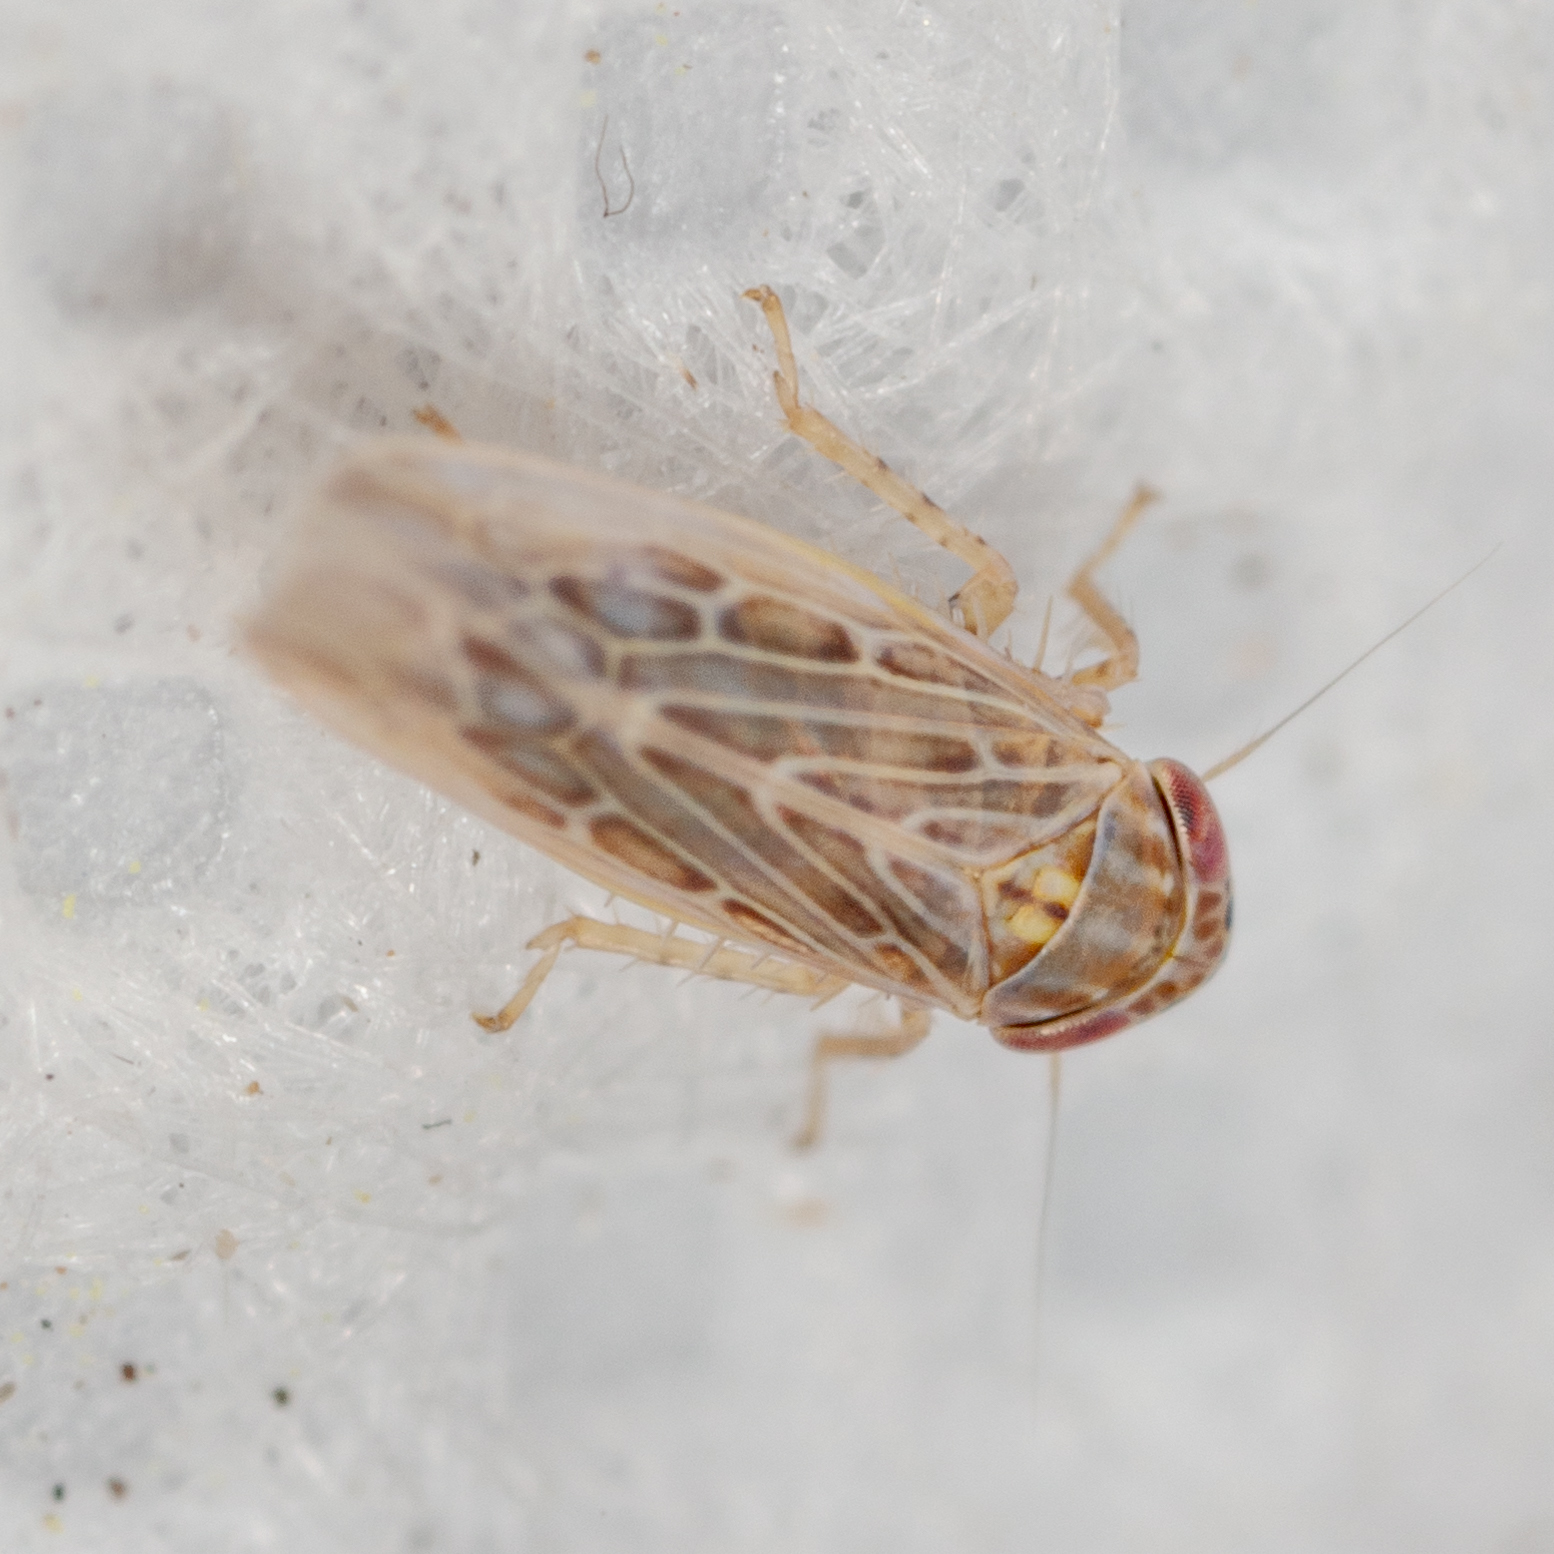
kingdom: Animalia
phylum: Arthropoda
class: Insecta
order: Hemiptera
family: Cicadellidae
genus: Graminella
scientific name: Graminella sonora
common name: Lesser lawn leafhopper
